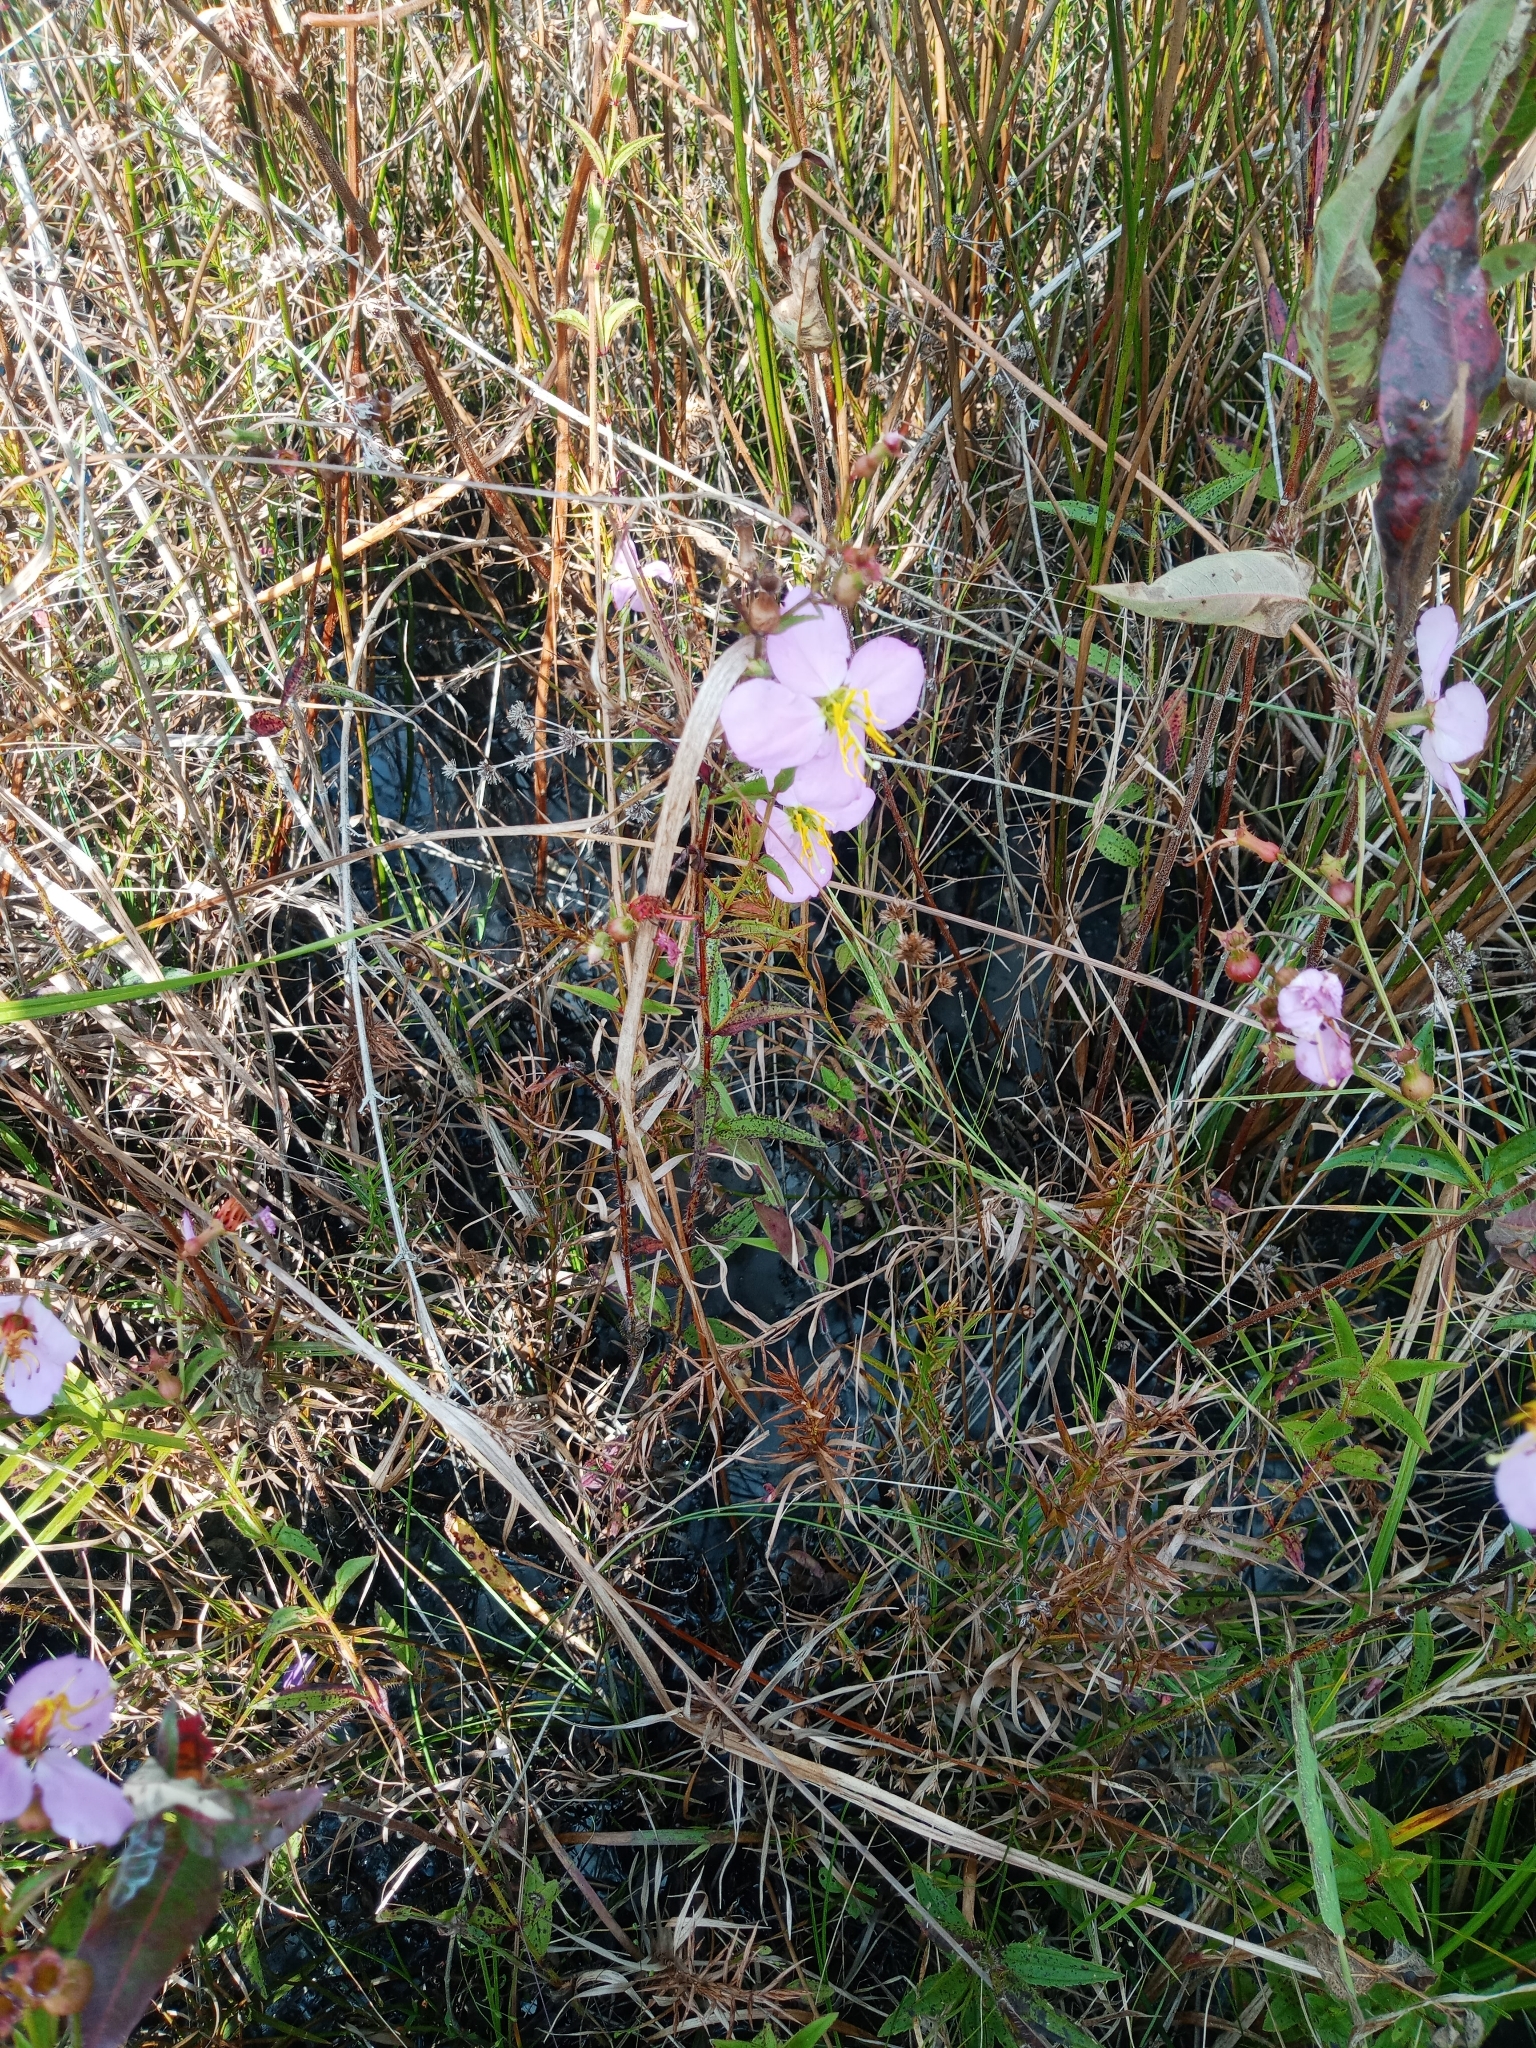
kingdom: Plantae
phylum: Tracheophyta
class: Magnoliopsida
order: Myrtales
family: Melastomataceae
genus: Rhexia
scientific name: Rhexia mariana
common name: Dull meadow-pitcher
